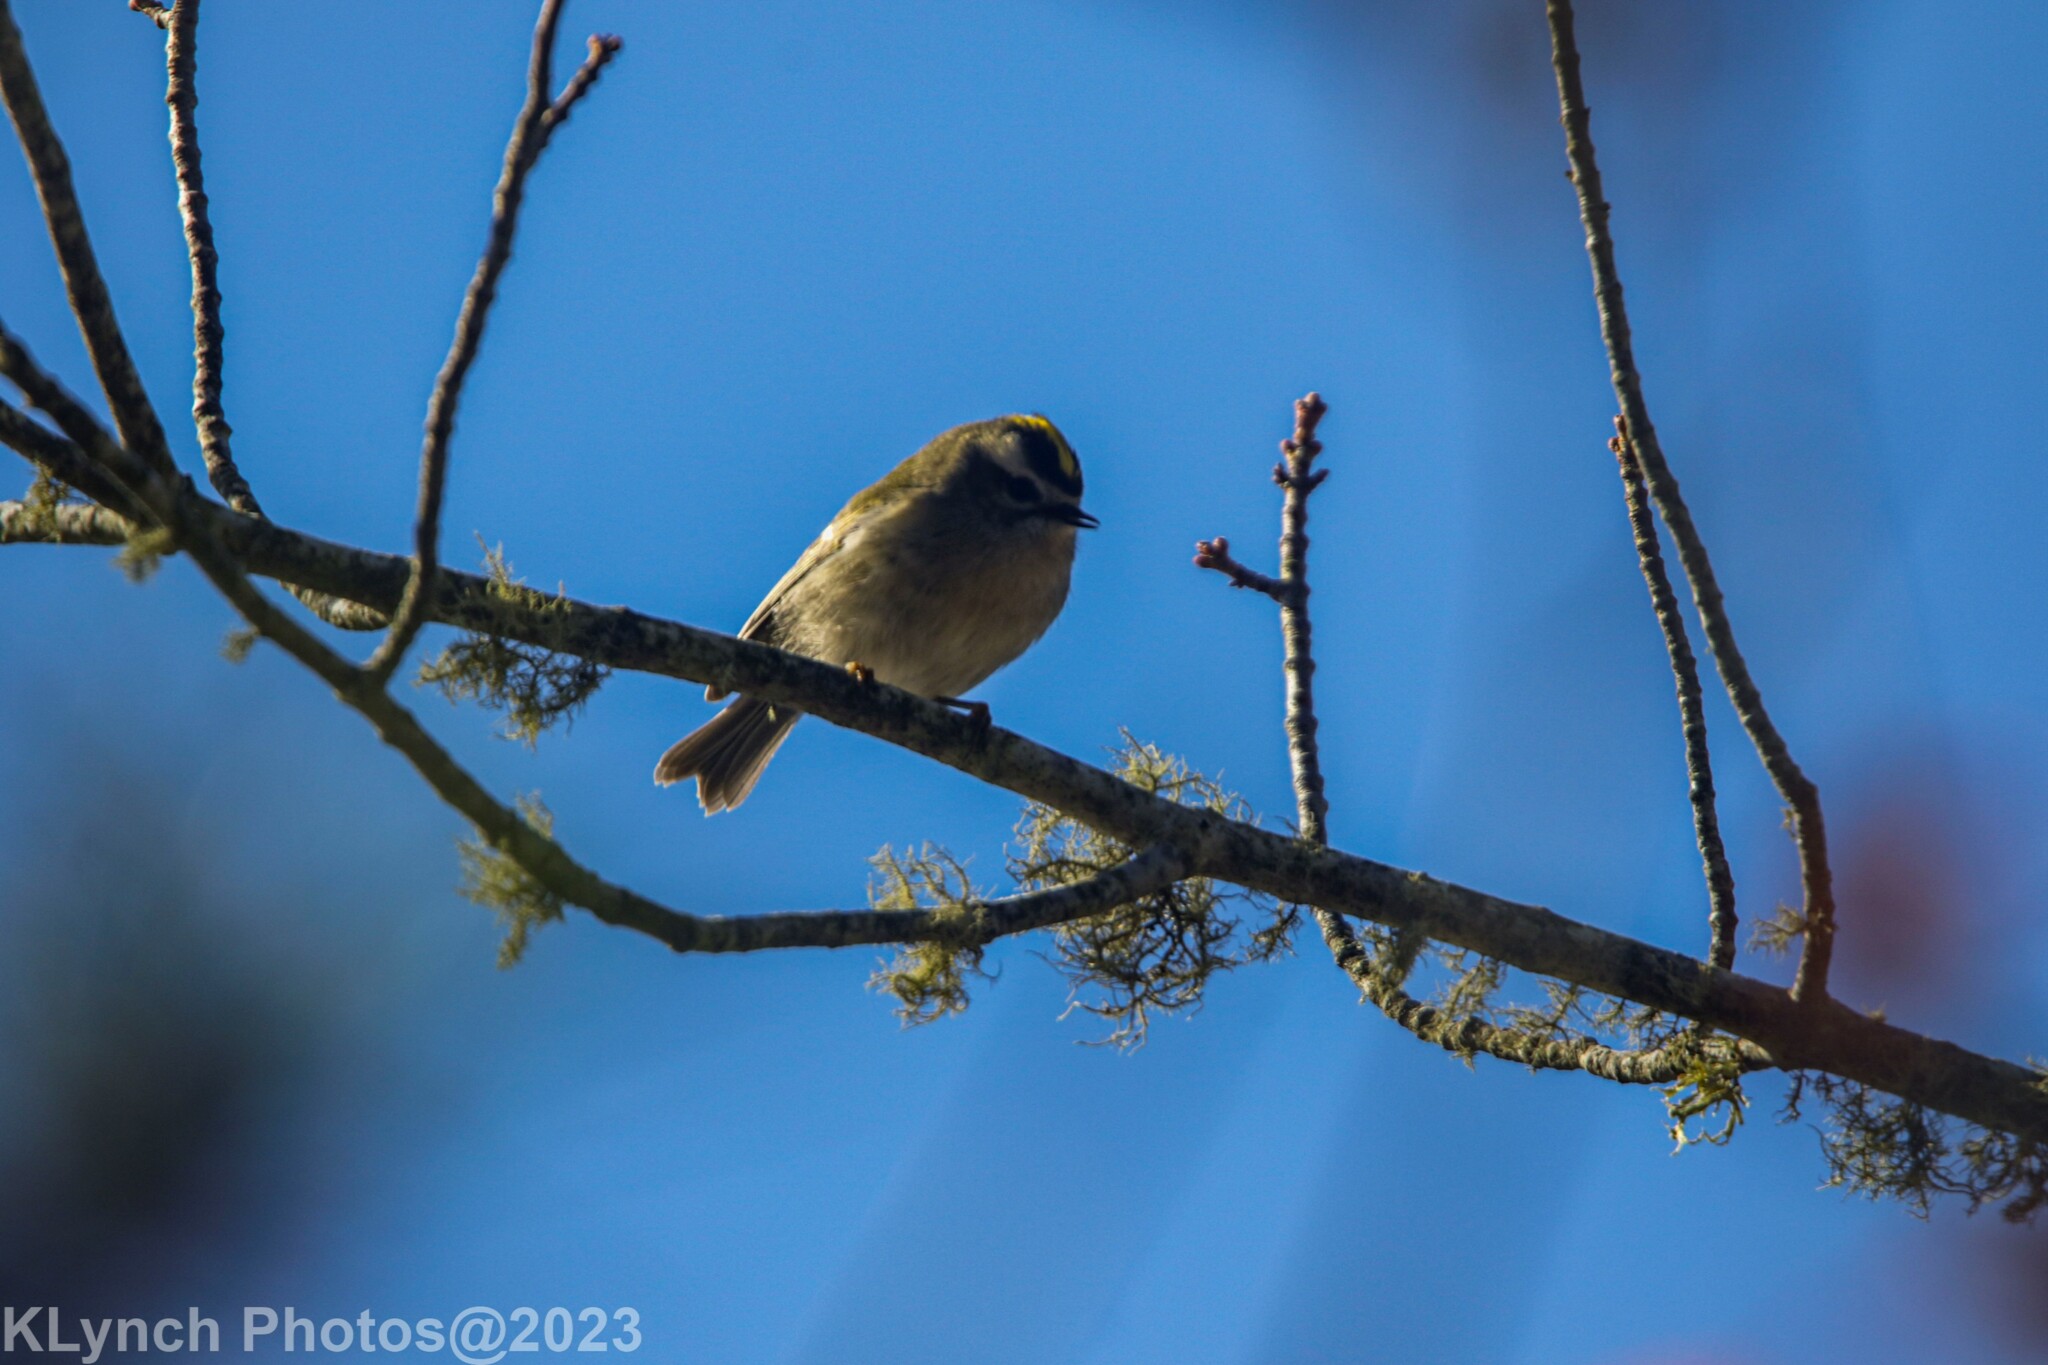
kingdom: Animalia
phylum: Chordata
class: Aves
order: Passeriformes
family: Regulidae
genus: Regulus
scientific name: Regulus satrapa
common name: Golden-crowned kinglet
